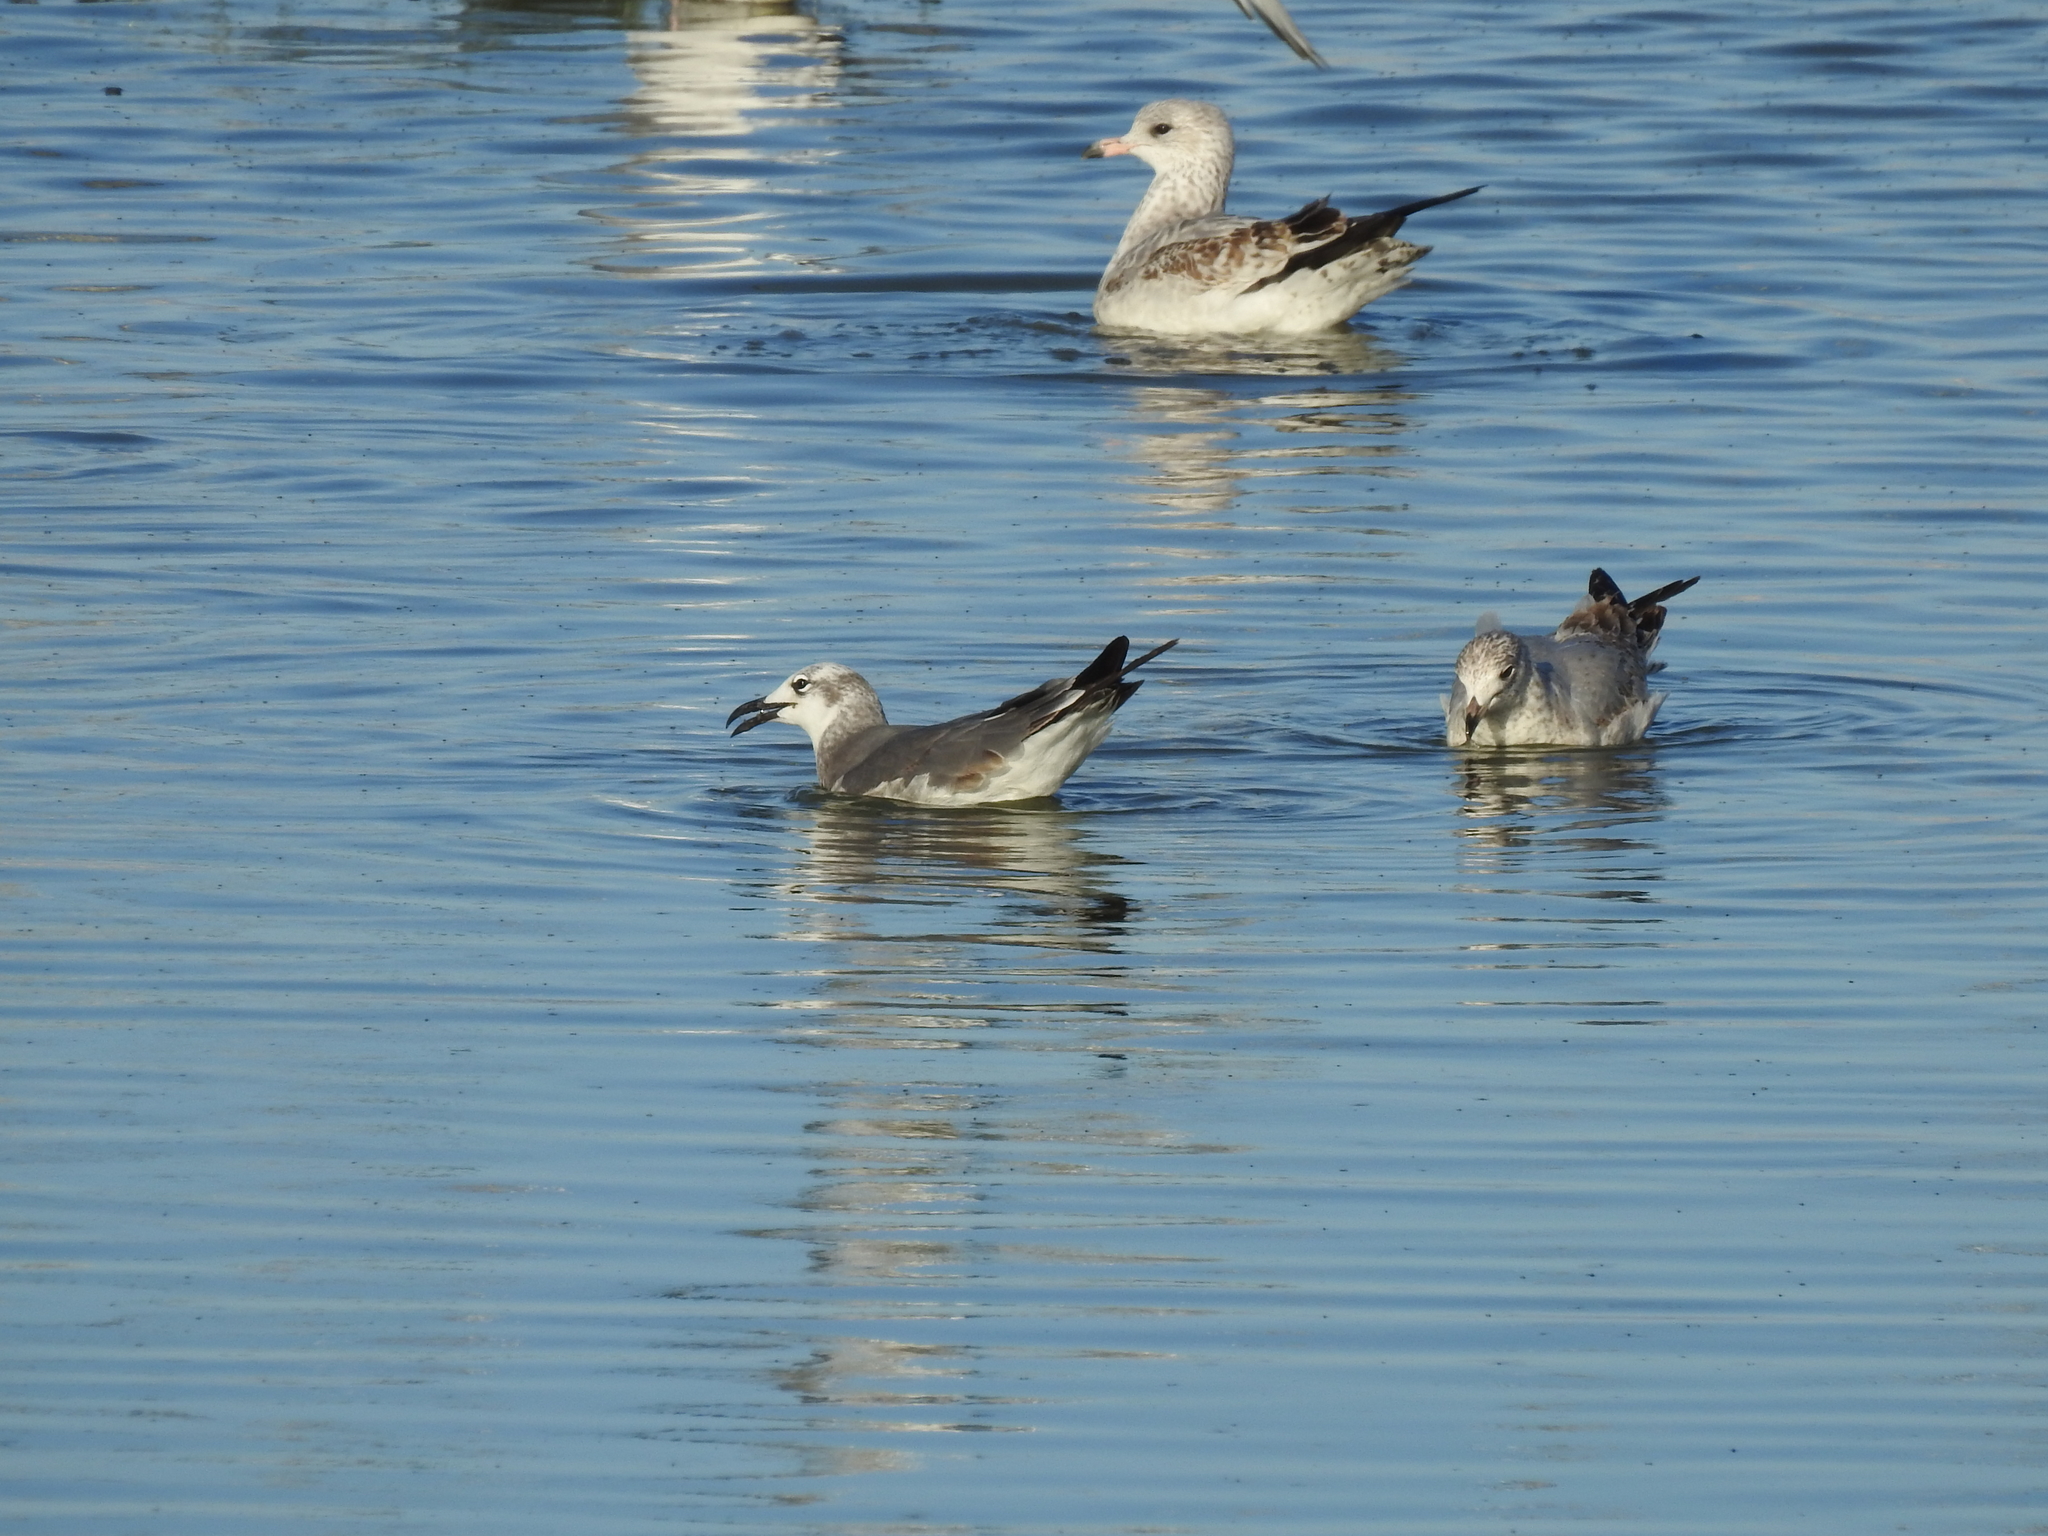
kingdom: Animalia
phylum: Chordata
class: Aves
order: Charadriiformes
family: Laridae
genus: Leucophaeus
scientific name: Leucophaeus atricilla
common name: Laughing gull
